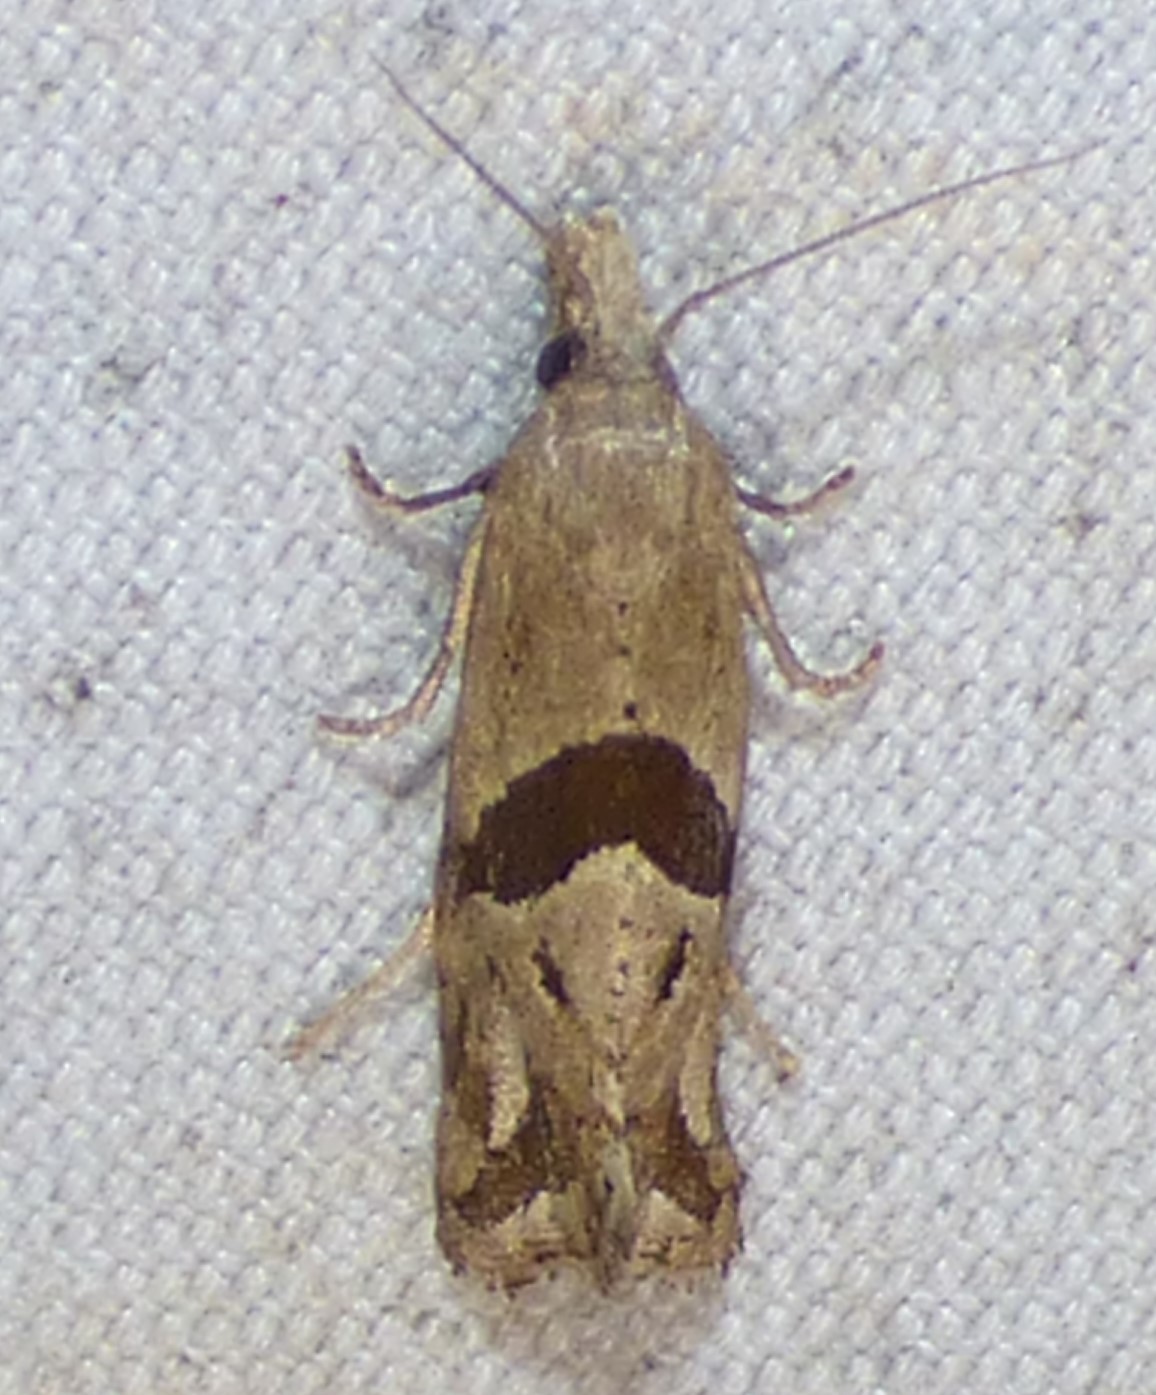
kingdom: Animalia
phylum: Arthropoda
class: Insecta
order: Lepidoptera
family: Tortricidae
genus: Eugnosta
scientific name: Eugnosta sartana
